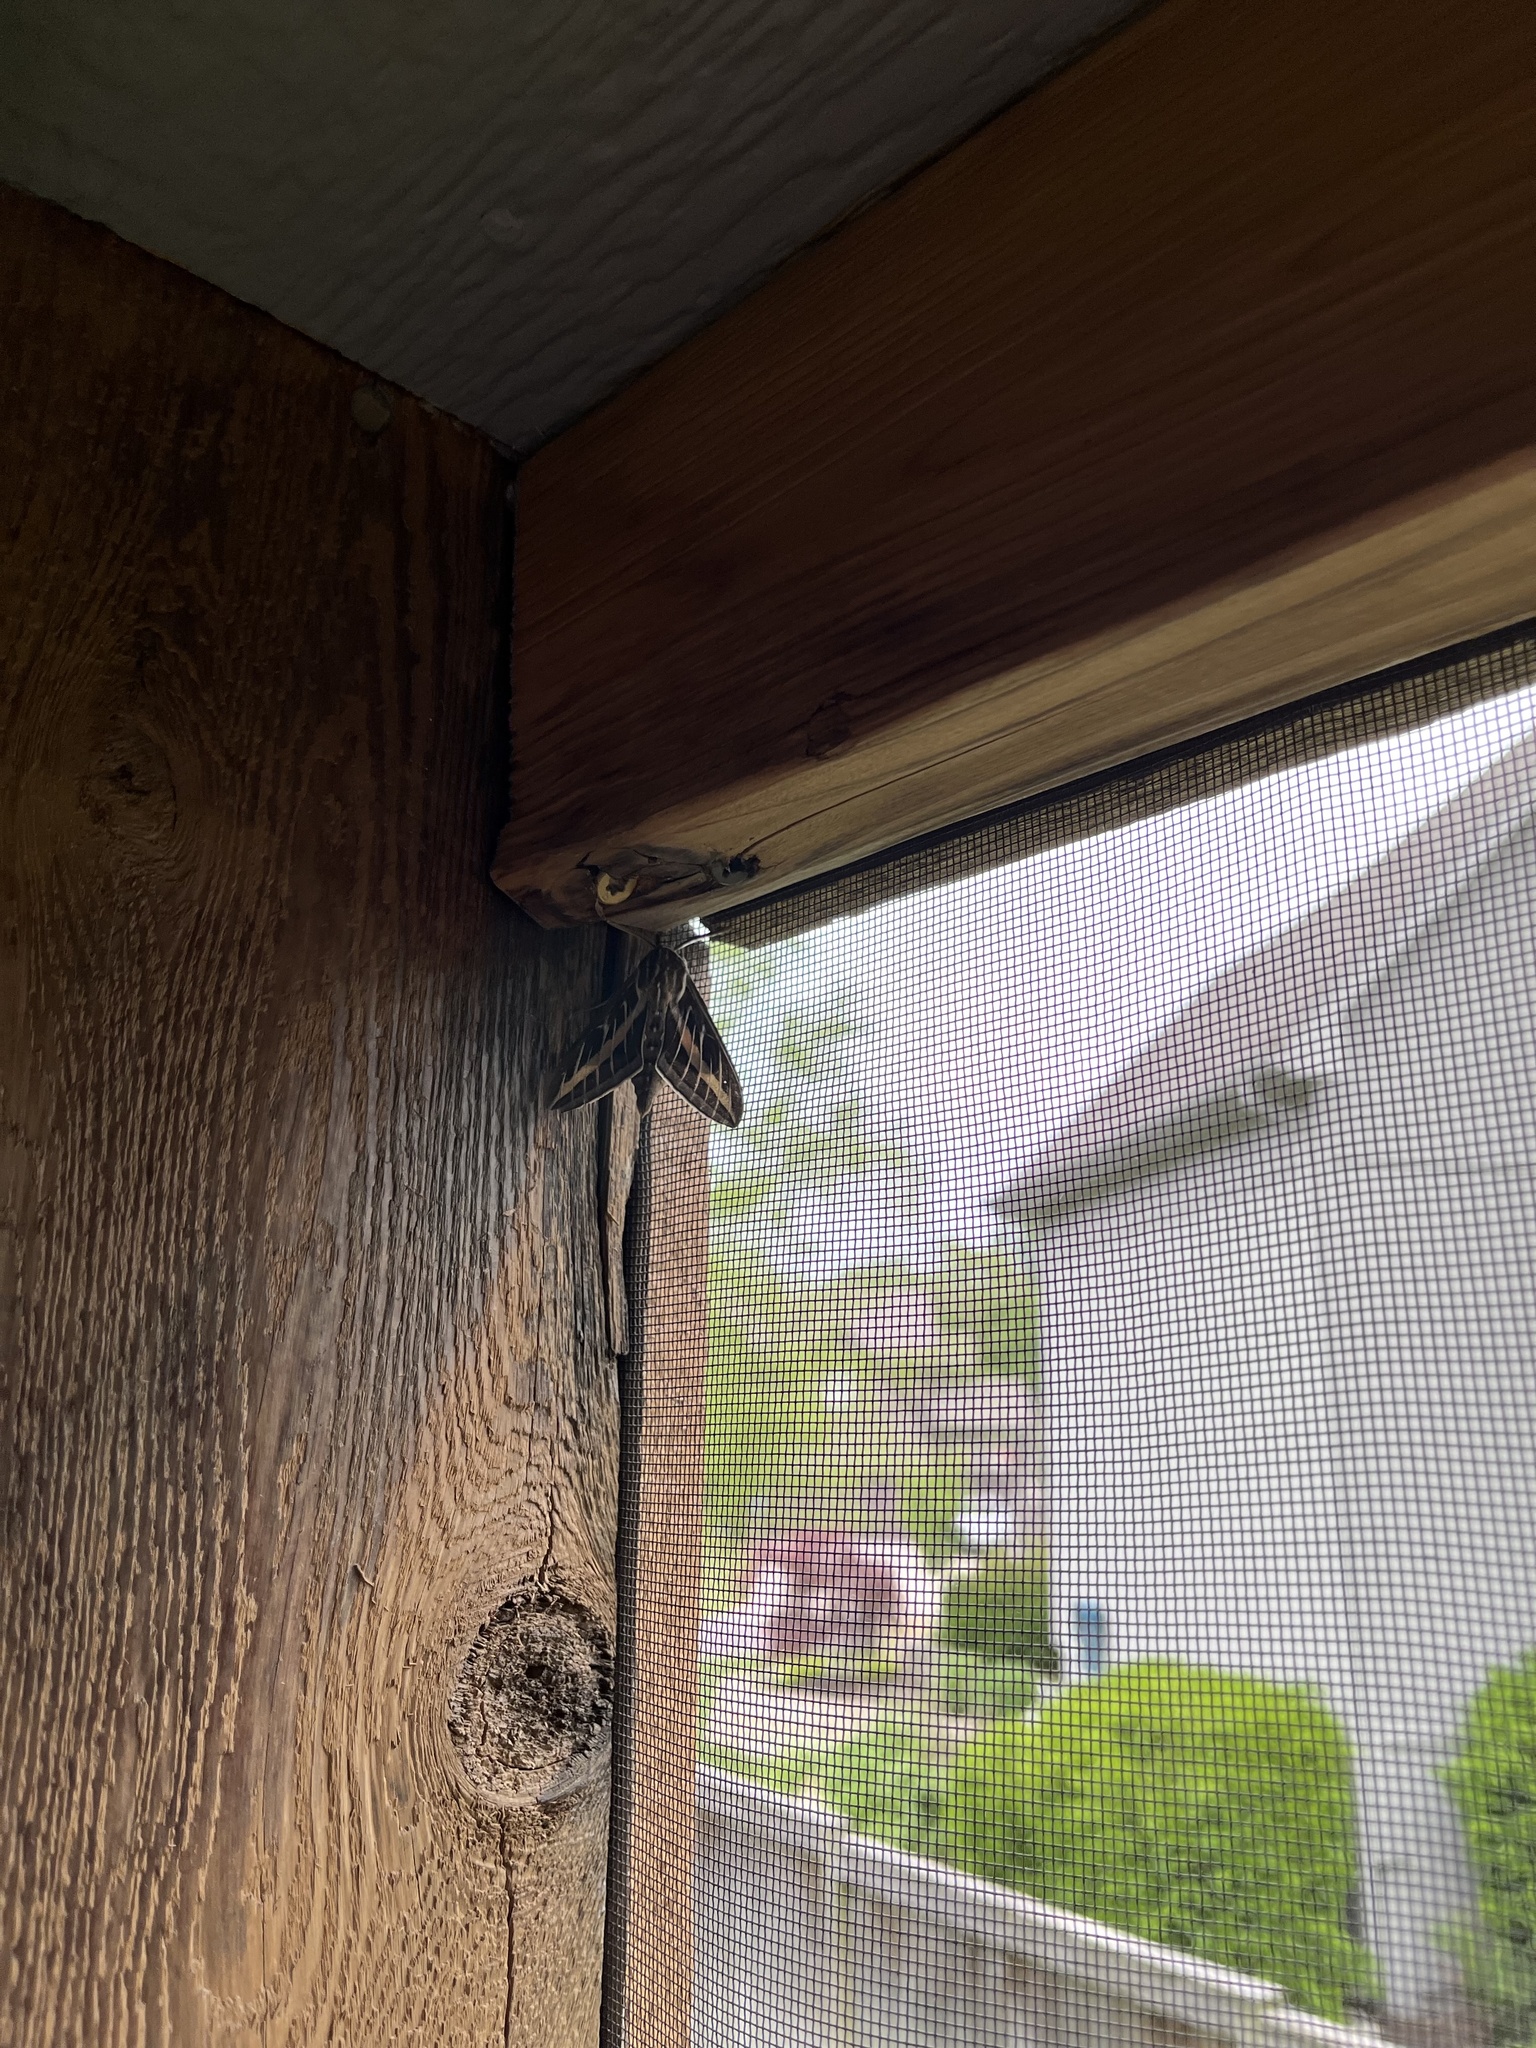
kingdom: Animalia
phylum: Arthropoda
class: Insecta
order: Lepidoptera
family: Sphingidae
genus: Hyles
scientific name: Hyles lineata
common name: White-lined sphinx
